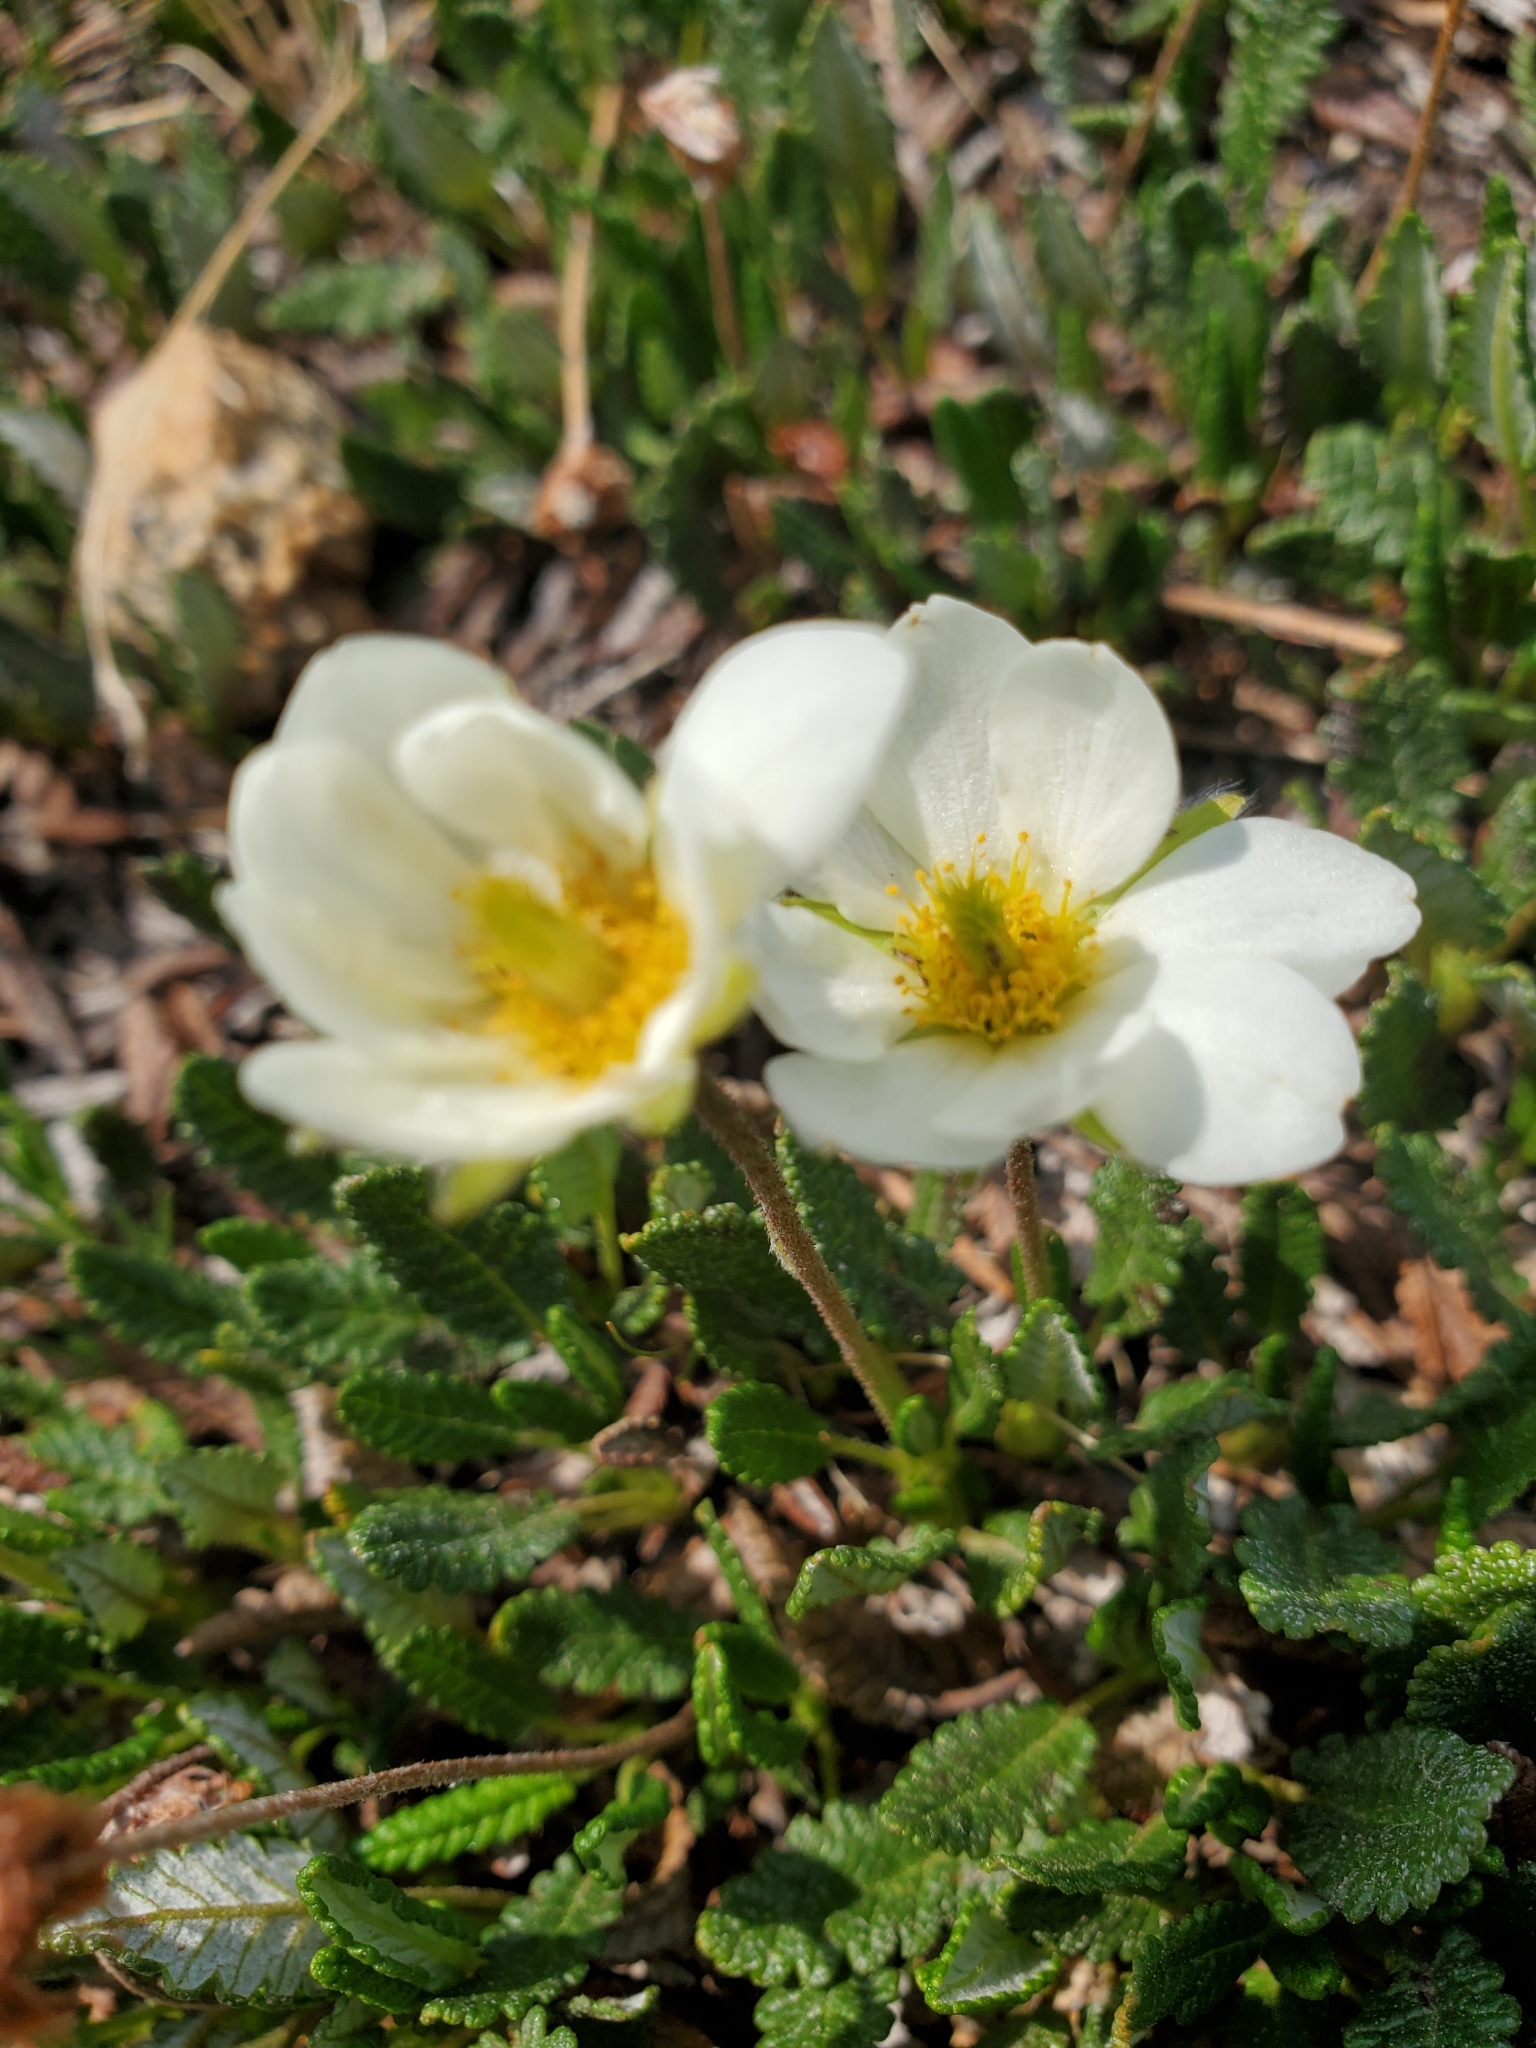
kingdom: Plantae
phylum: Tracheophyta
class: Magnoliopsida
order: Rosales
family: Rosaceae
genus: Dryas
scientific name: Dryas octopetala
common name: Eight-petal mountain-avens
